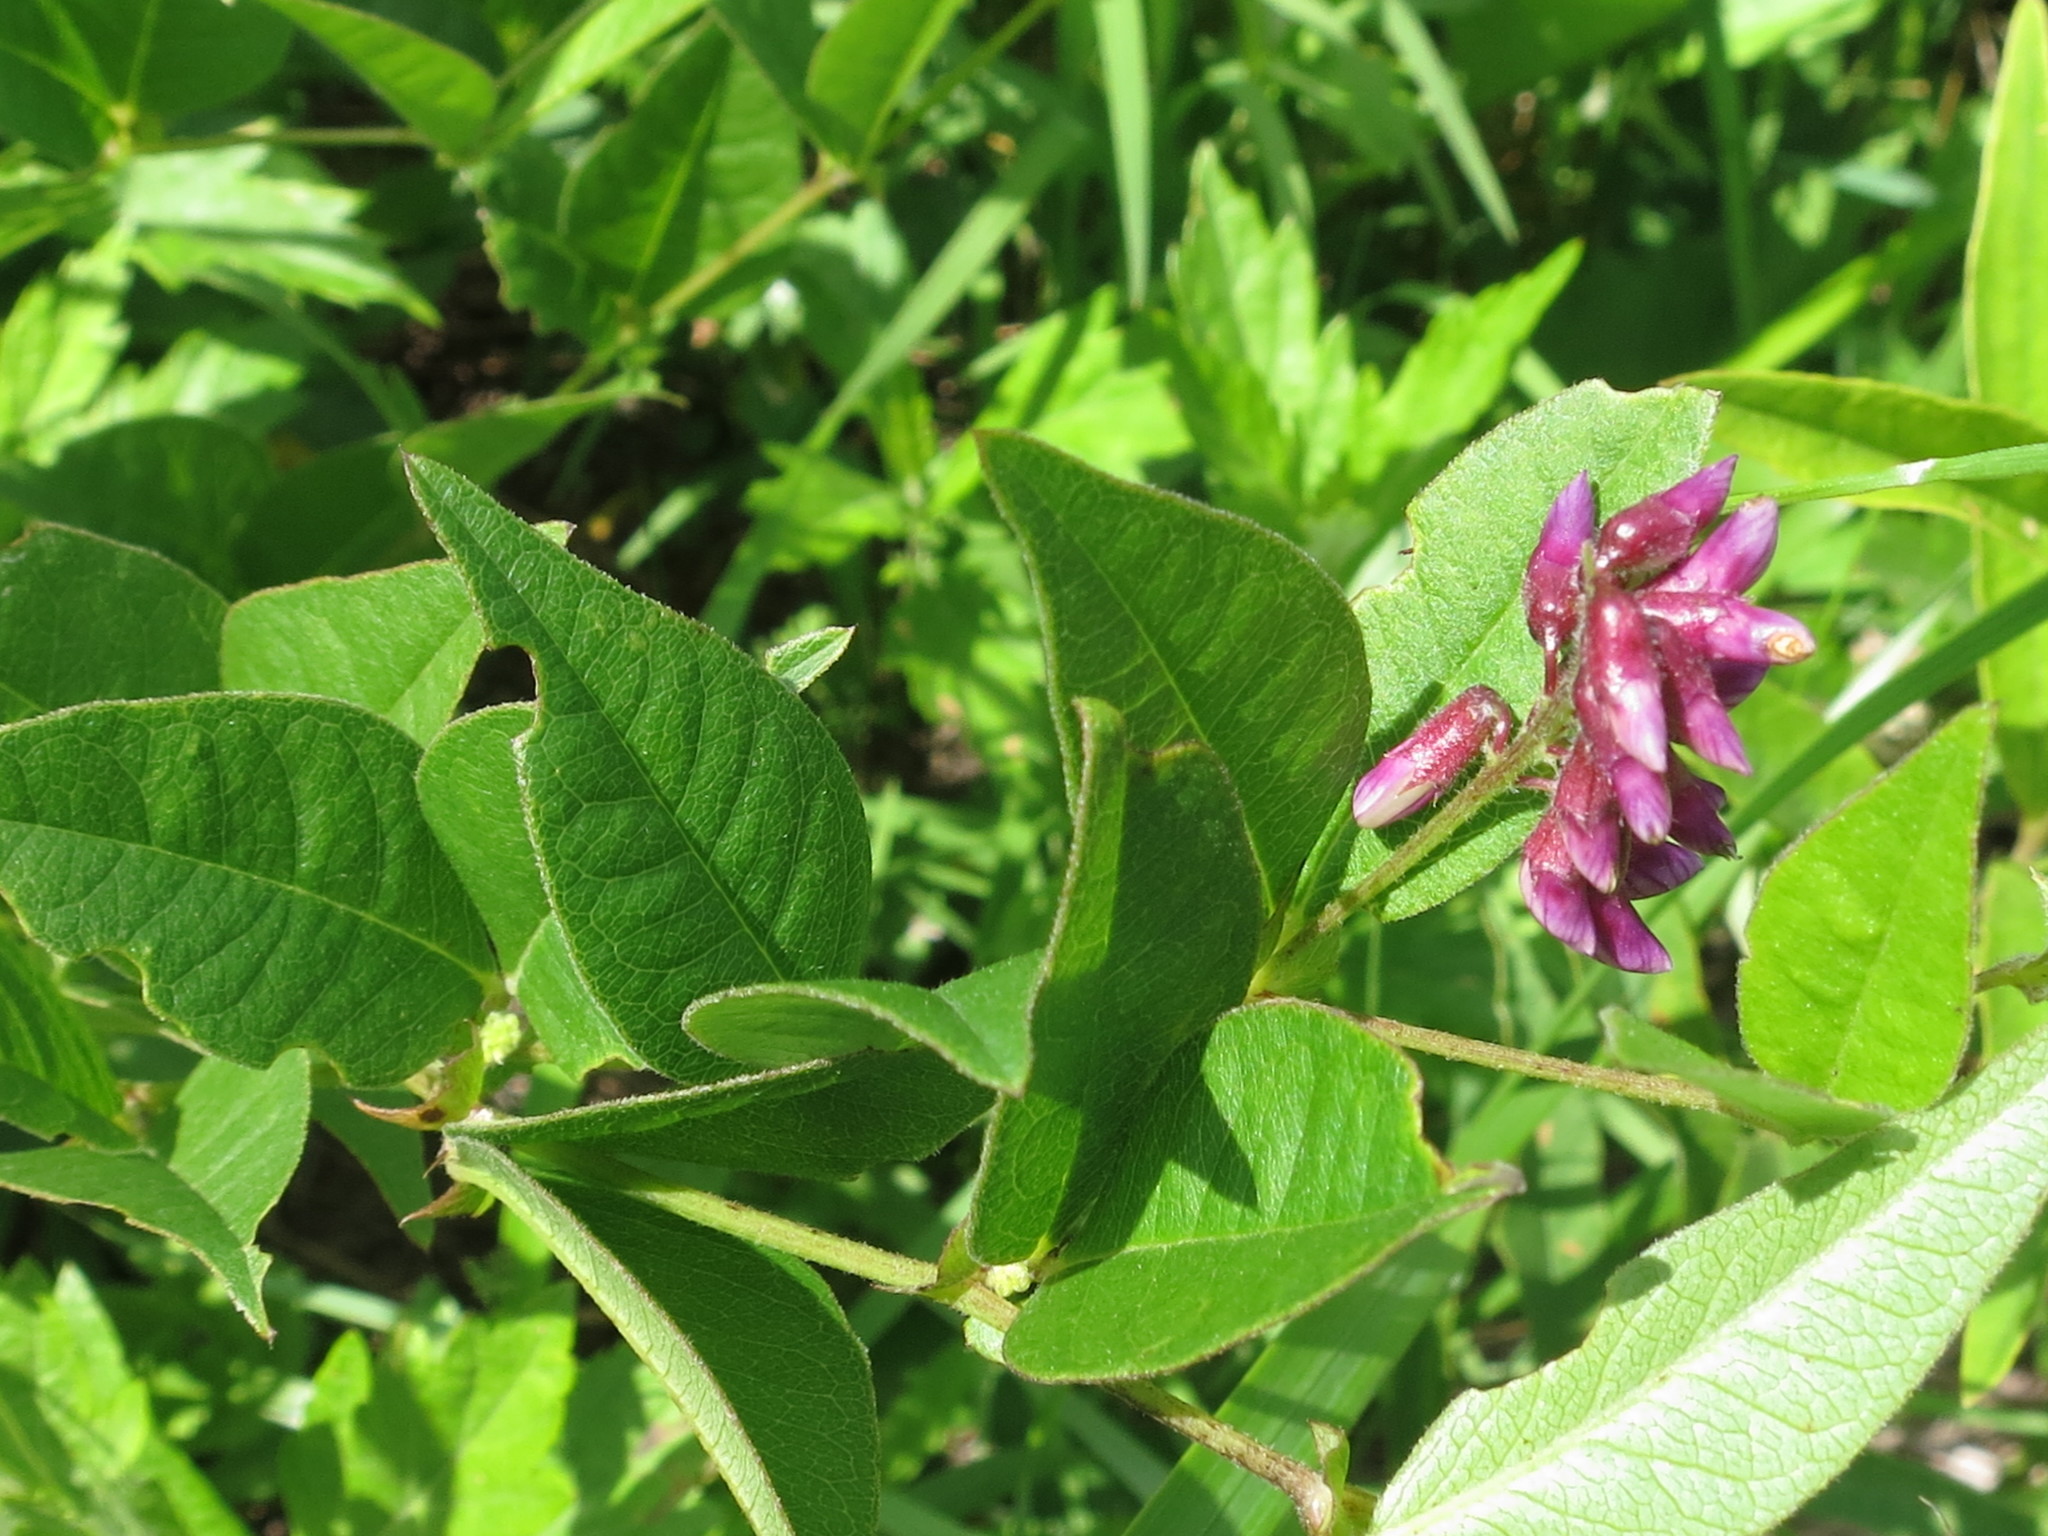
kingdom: Plantae
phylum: Tracheophyta
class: Magnoliopsida
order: Fabales
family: Fabaceae
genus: Vicia
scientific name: Vicia unijuga
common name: Two-leaf vetch
